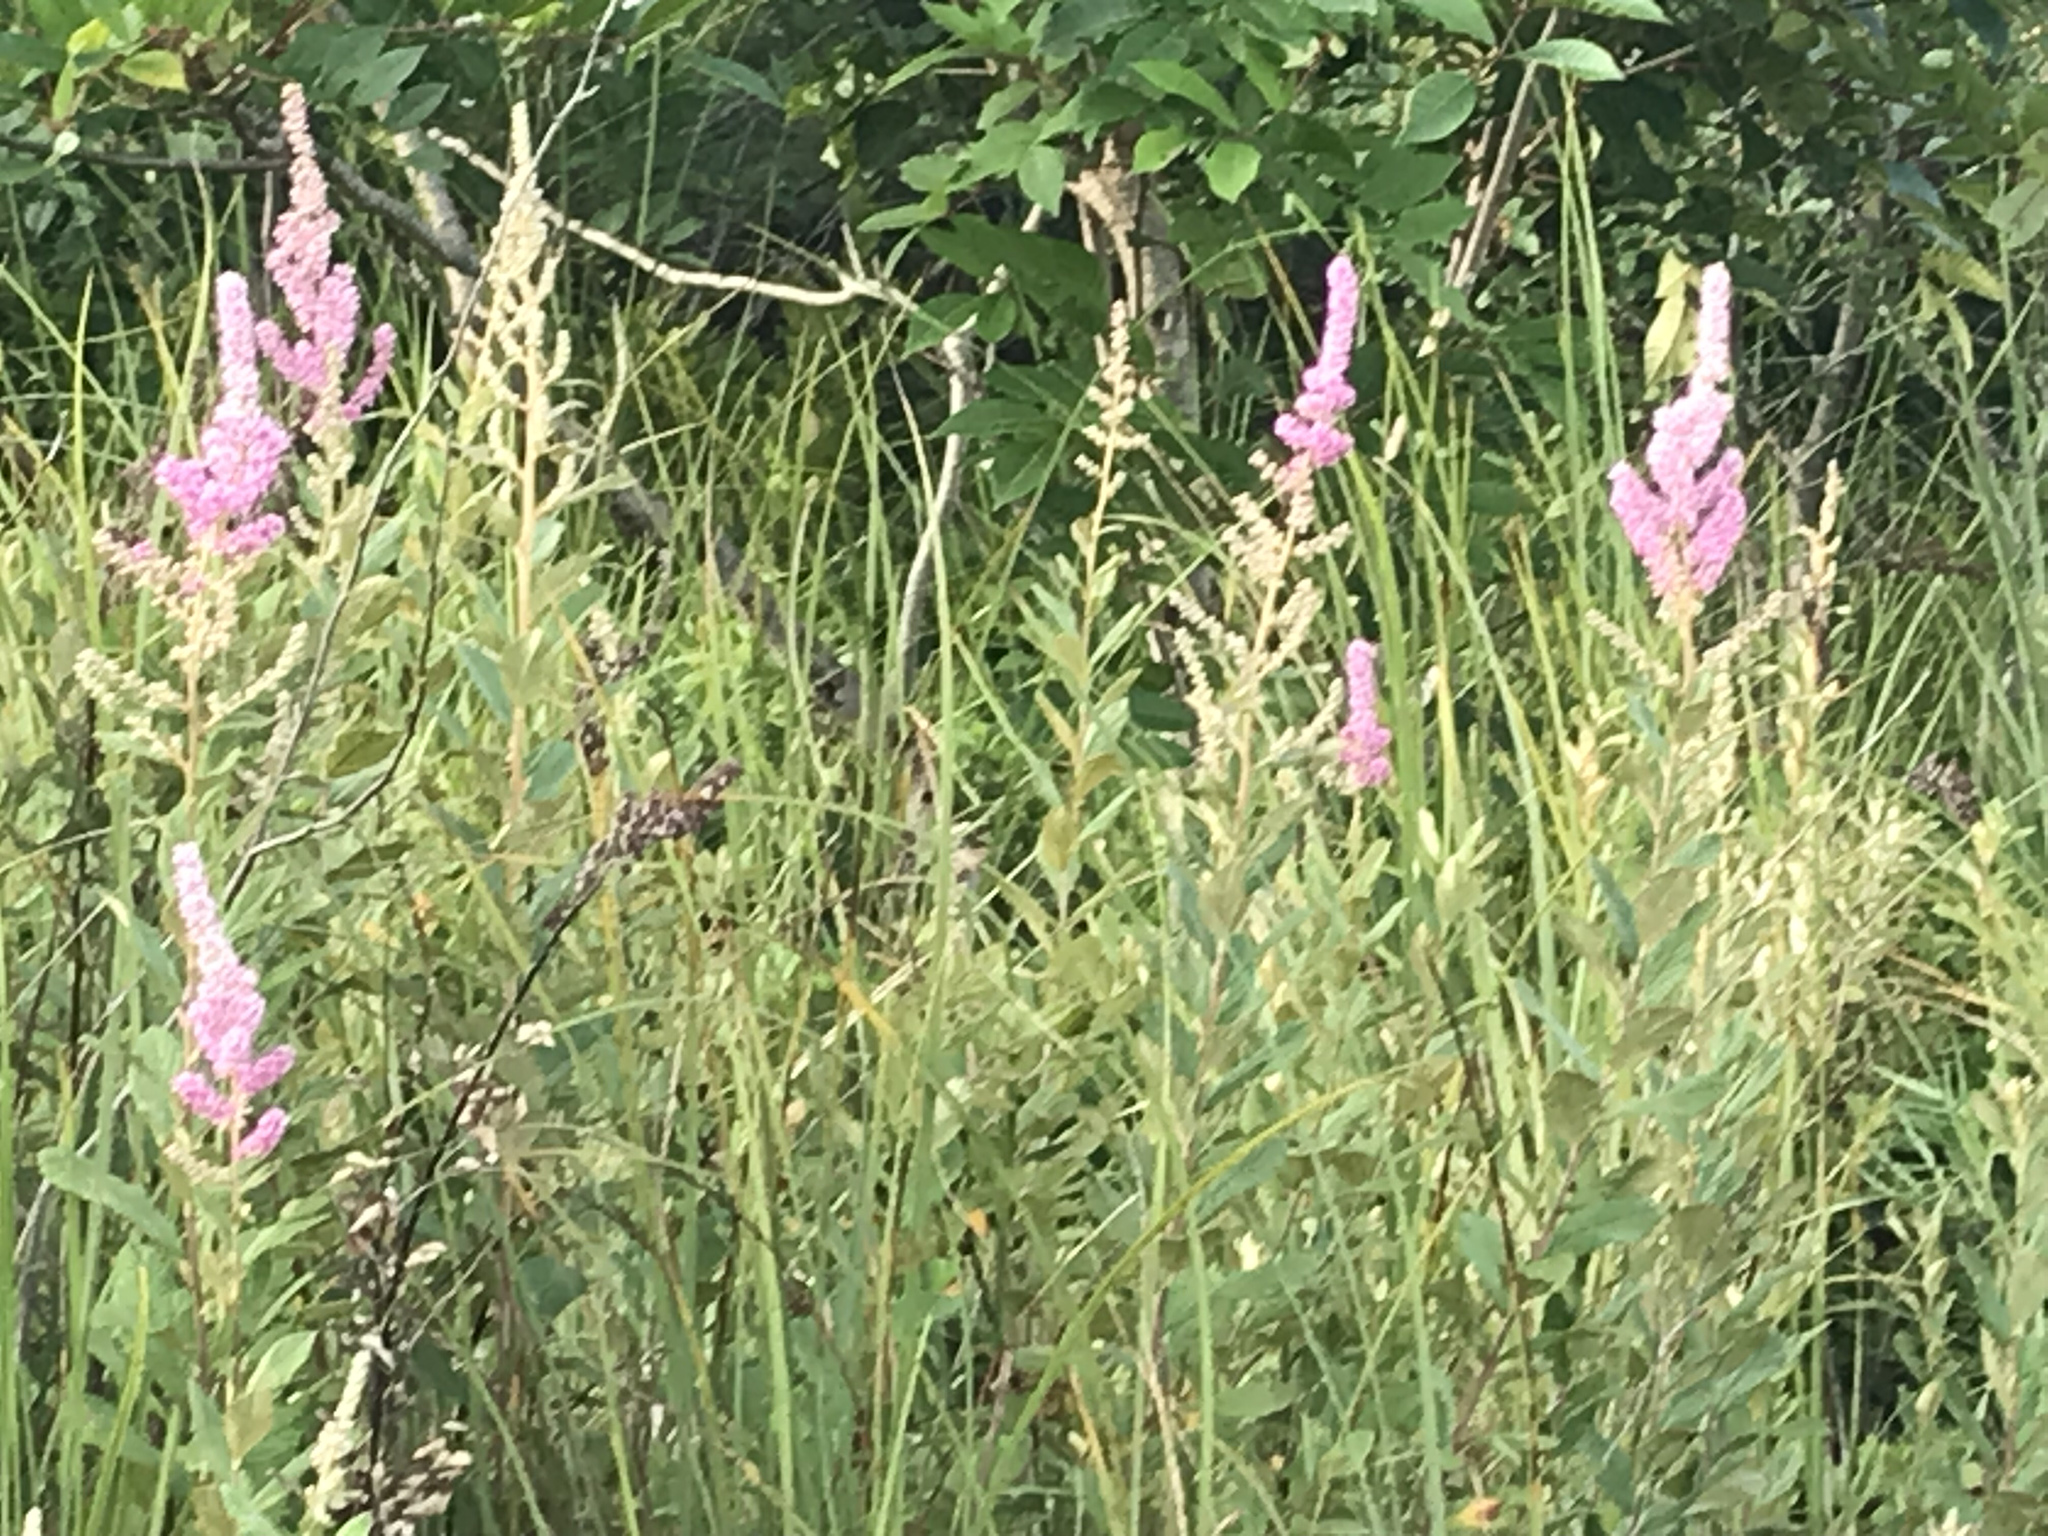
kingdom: Plantae
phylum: Tracheophyta
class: Magnoliopsida
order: Rosales
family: Rosaceae
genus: Spiraea
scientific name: Spiraea tomentosa
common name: Hardhack
